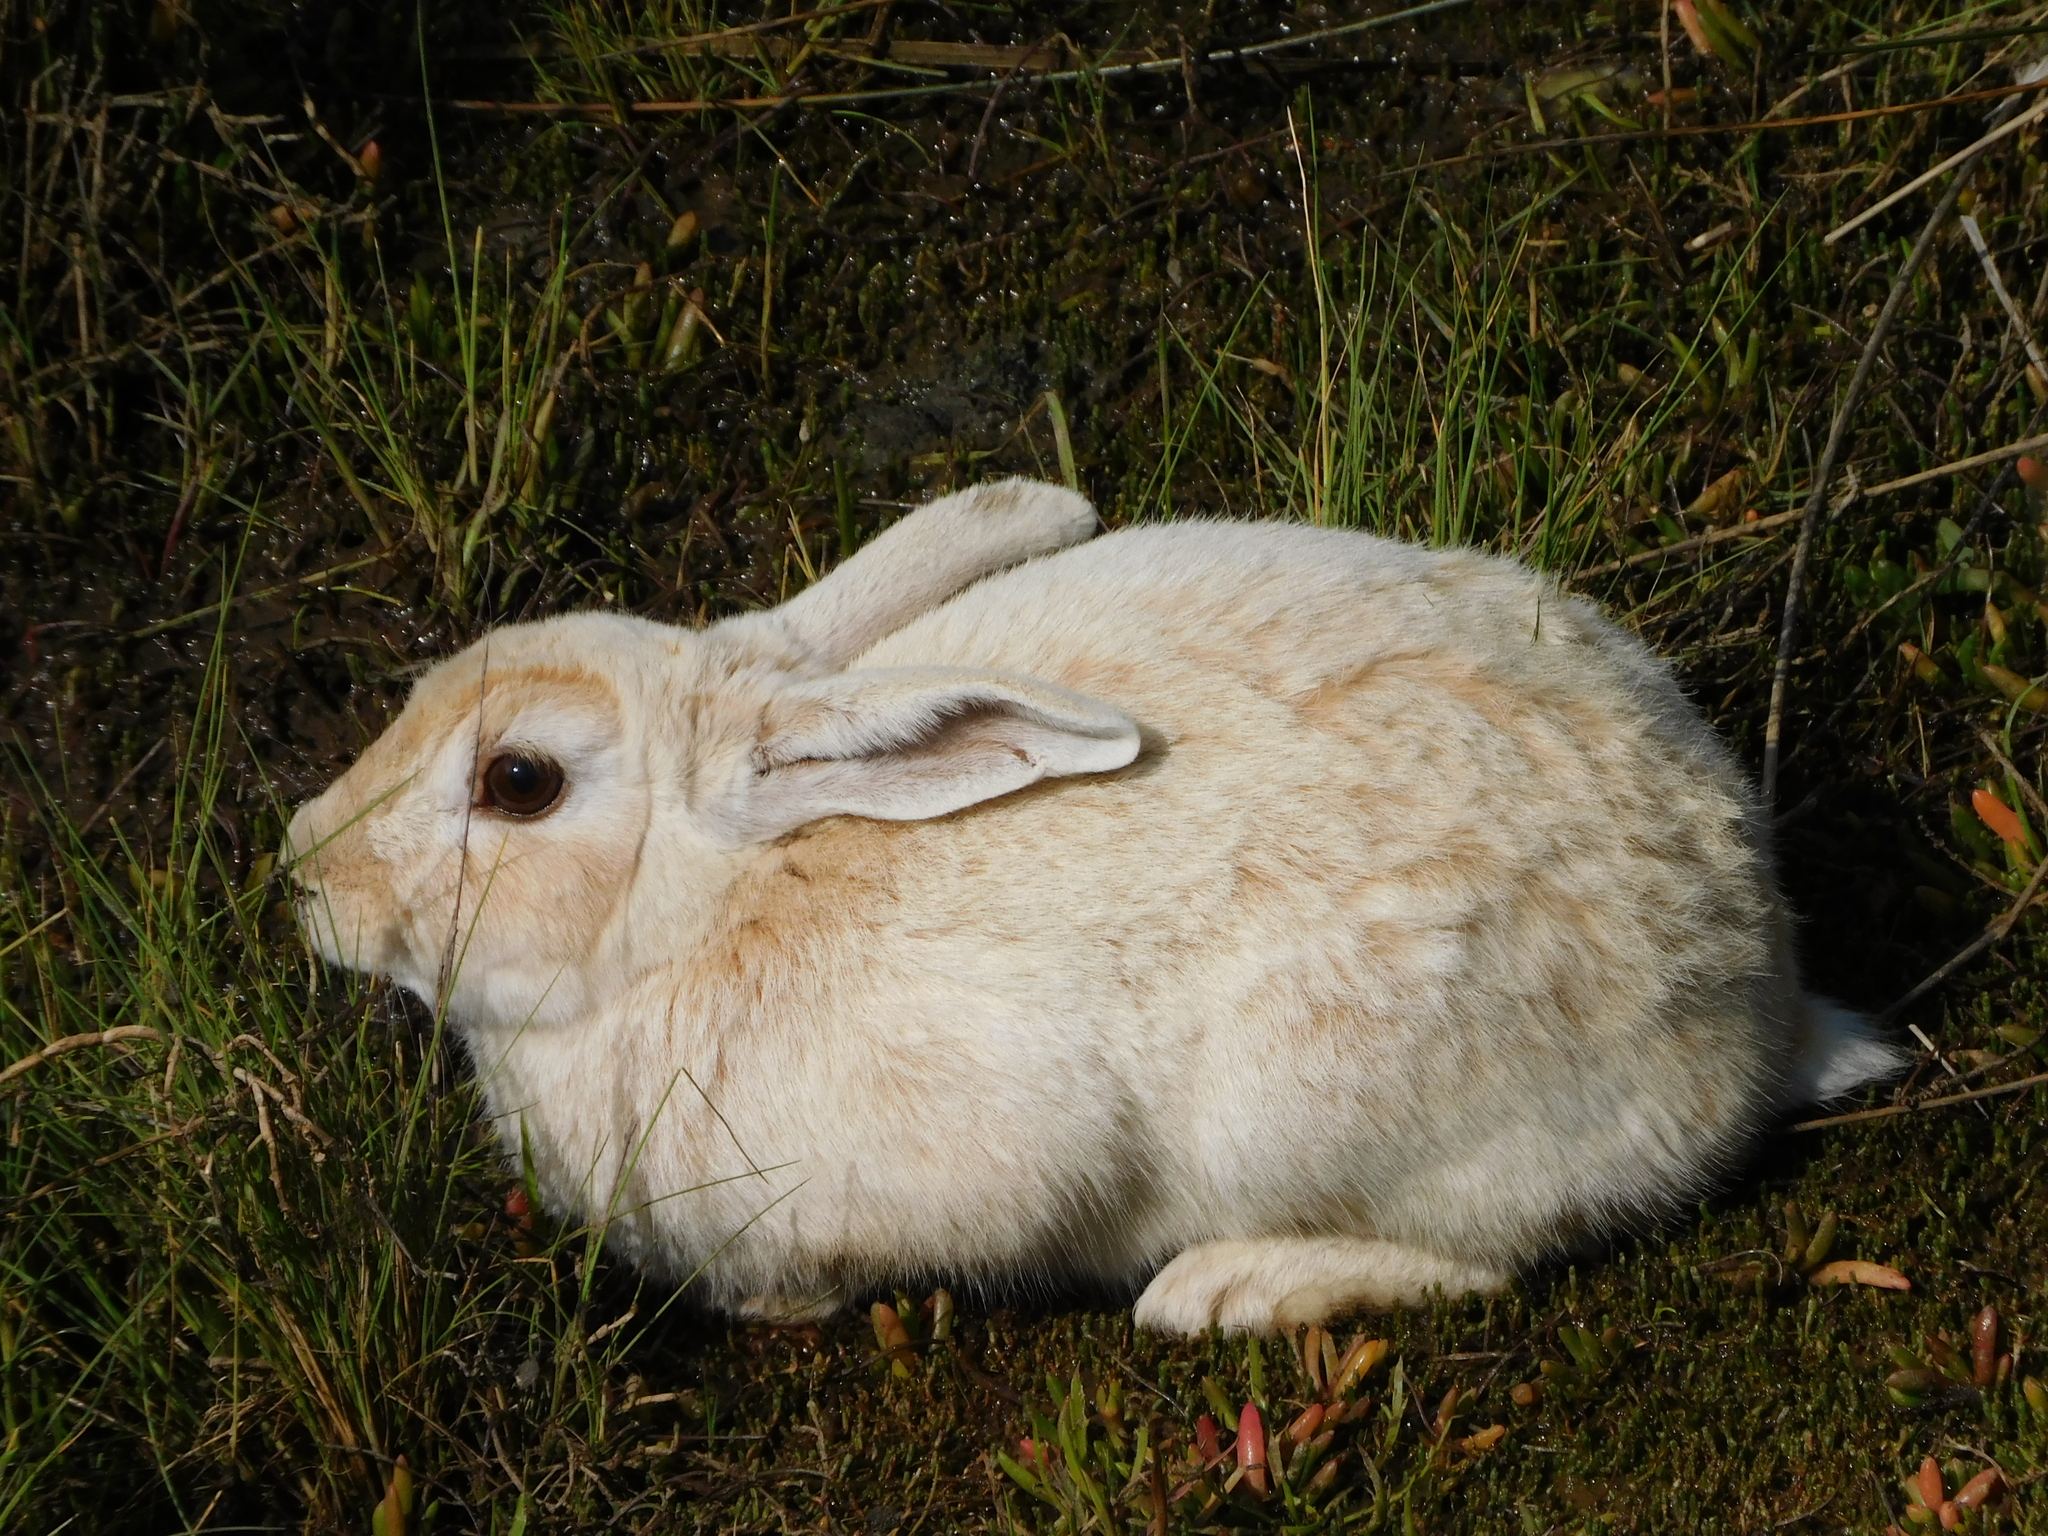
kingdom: Animalia
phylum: Chordata
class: Mammalia
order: Lagomorpha
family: Leporidae
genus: Oryctolagus
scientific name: Oryctolagus cuniculus
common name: European rabbit
